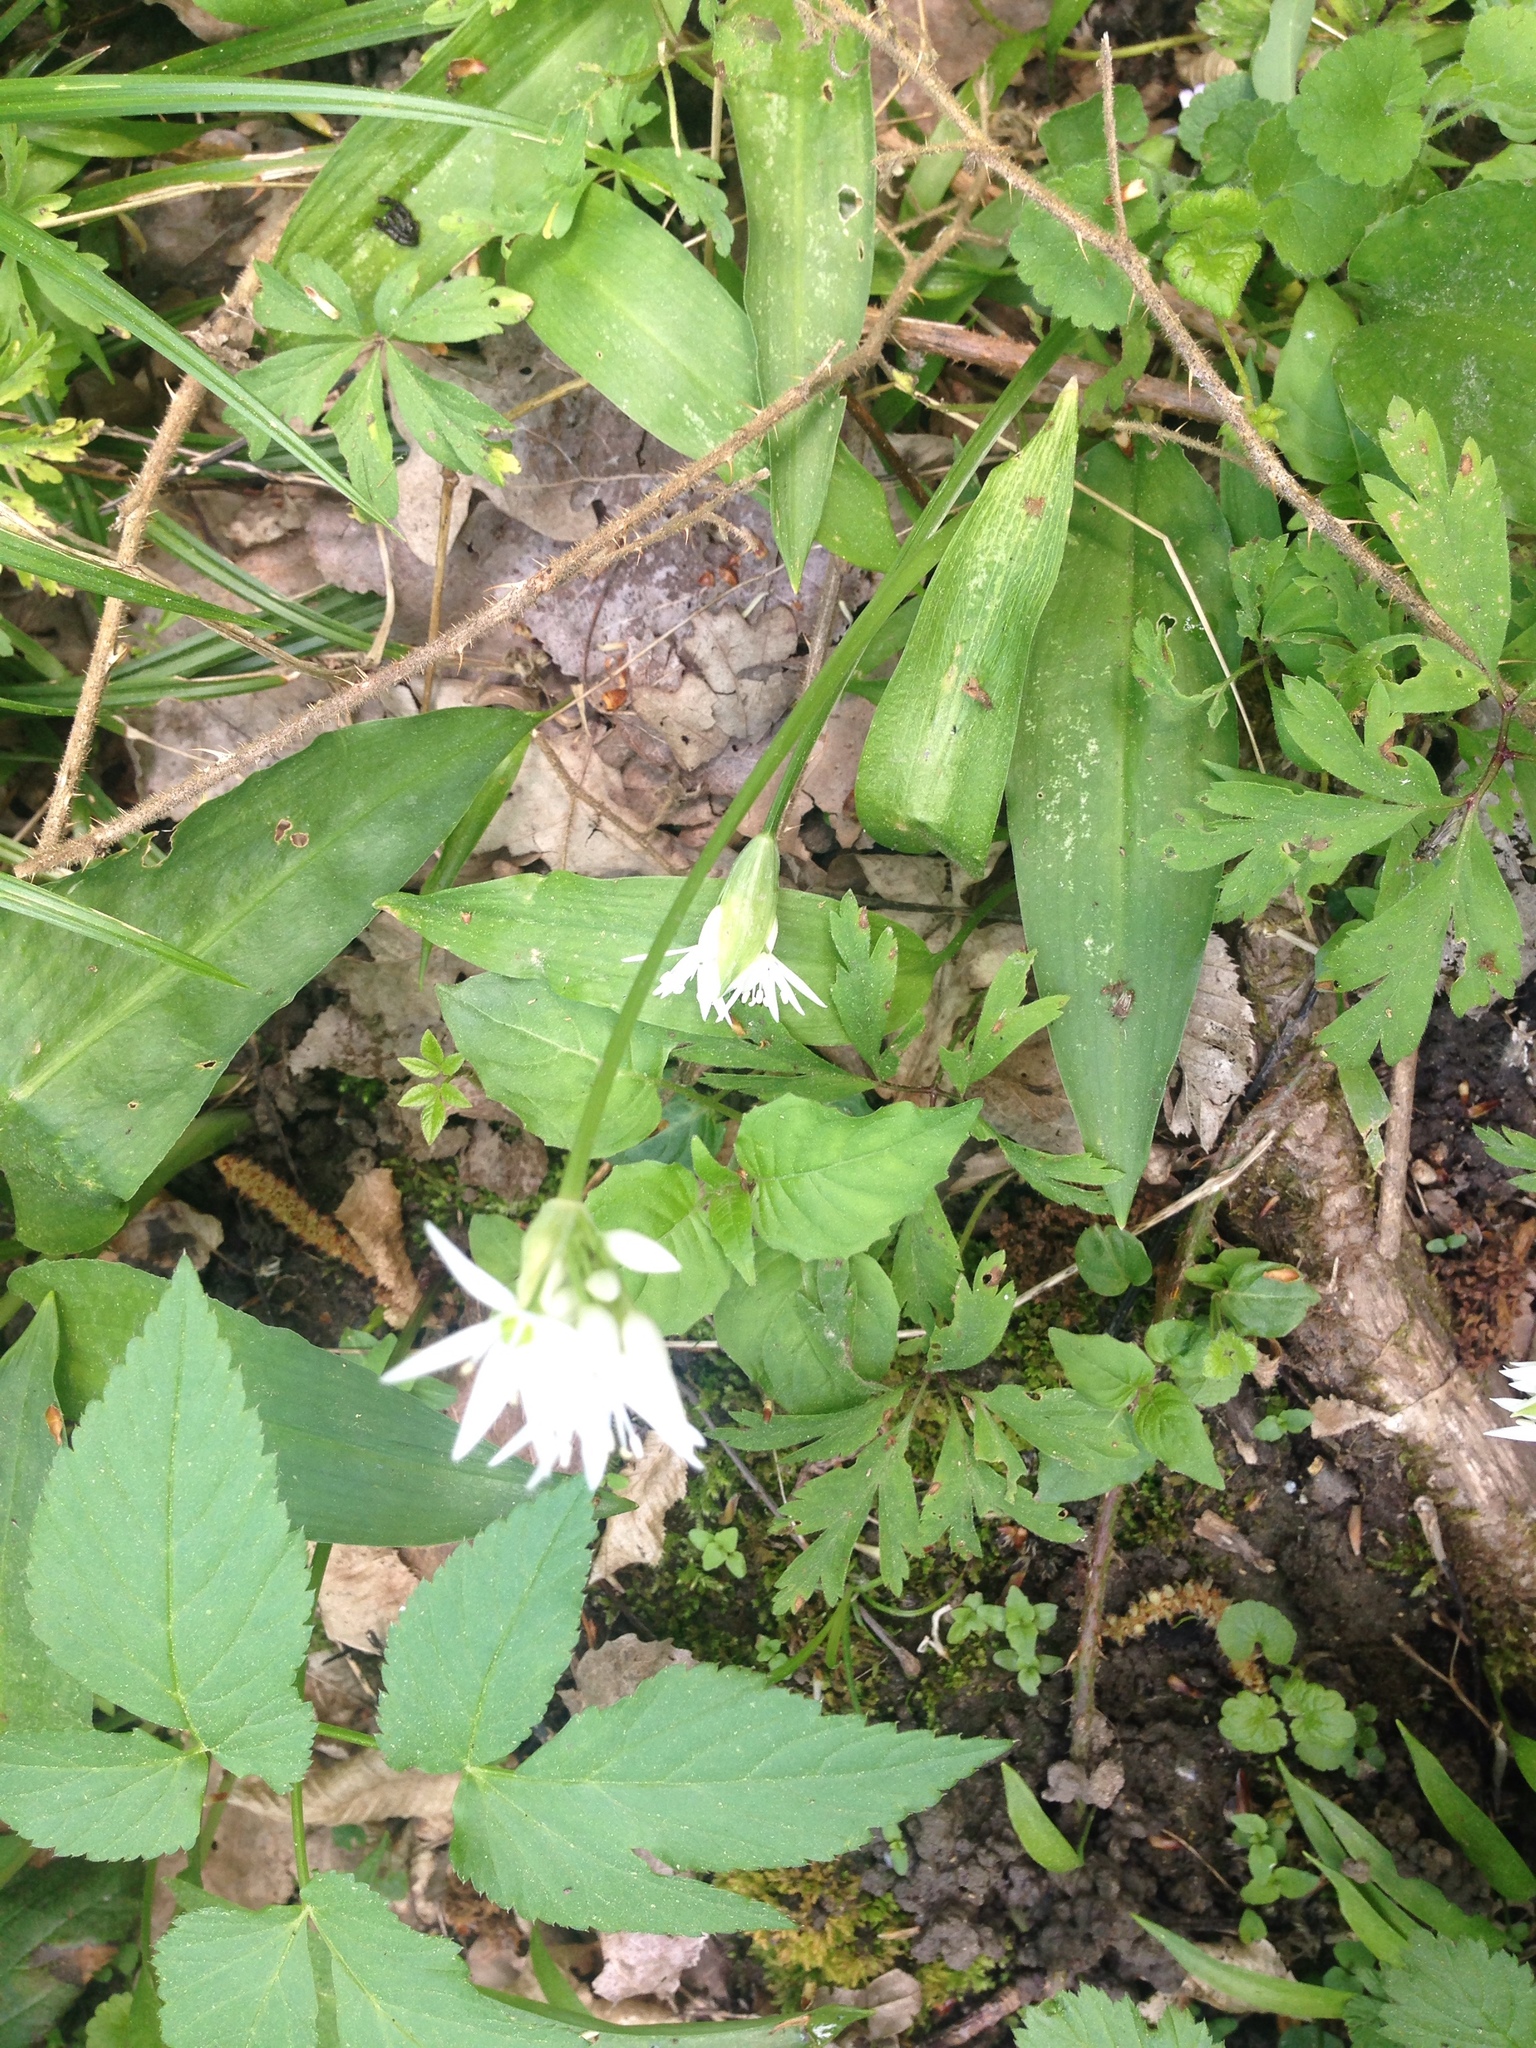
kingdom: Plantae
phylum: Tracheophyta
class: Liliopsida
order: Asparagales
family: Amaryllidaceae
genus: Allium
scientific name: Allium ursinum
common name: Ramsons
